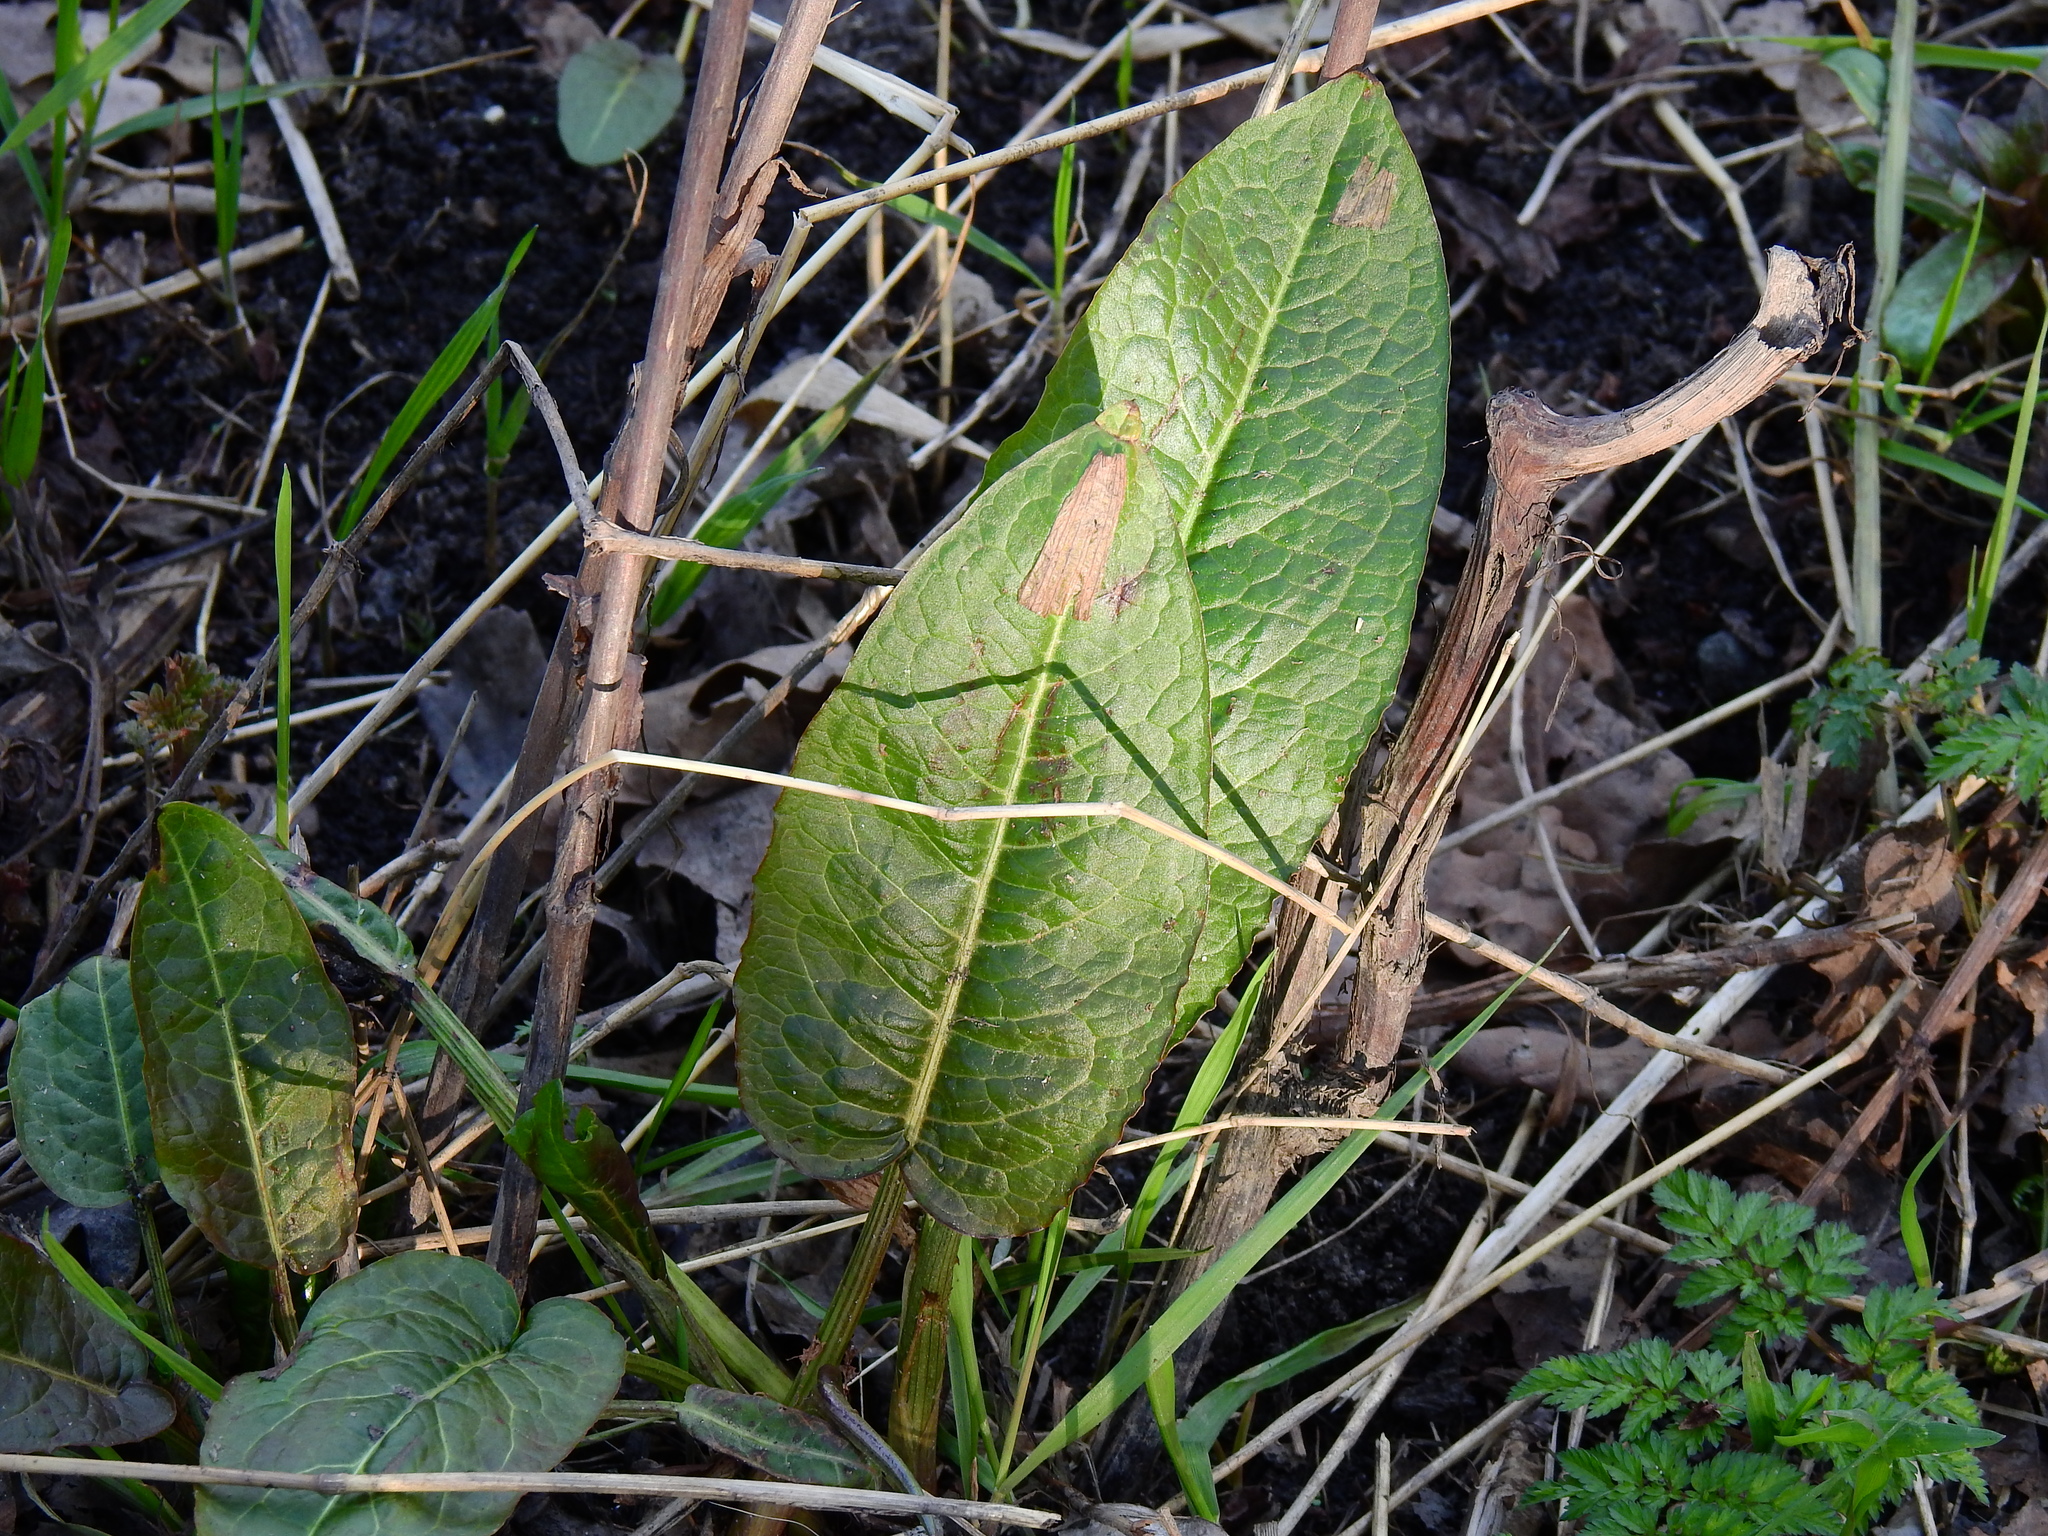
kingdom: Plantae
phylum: Tracheophyta
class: Magnoliopsida
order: Caryophyllales
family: Polygonaceae
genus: Rumex
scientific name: Rumex obtusifolius
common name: Bitter dock
